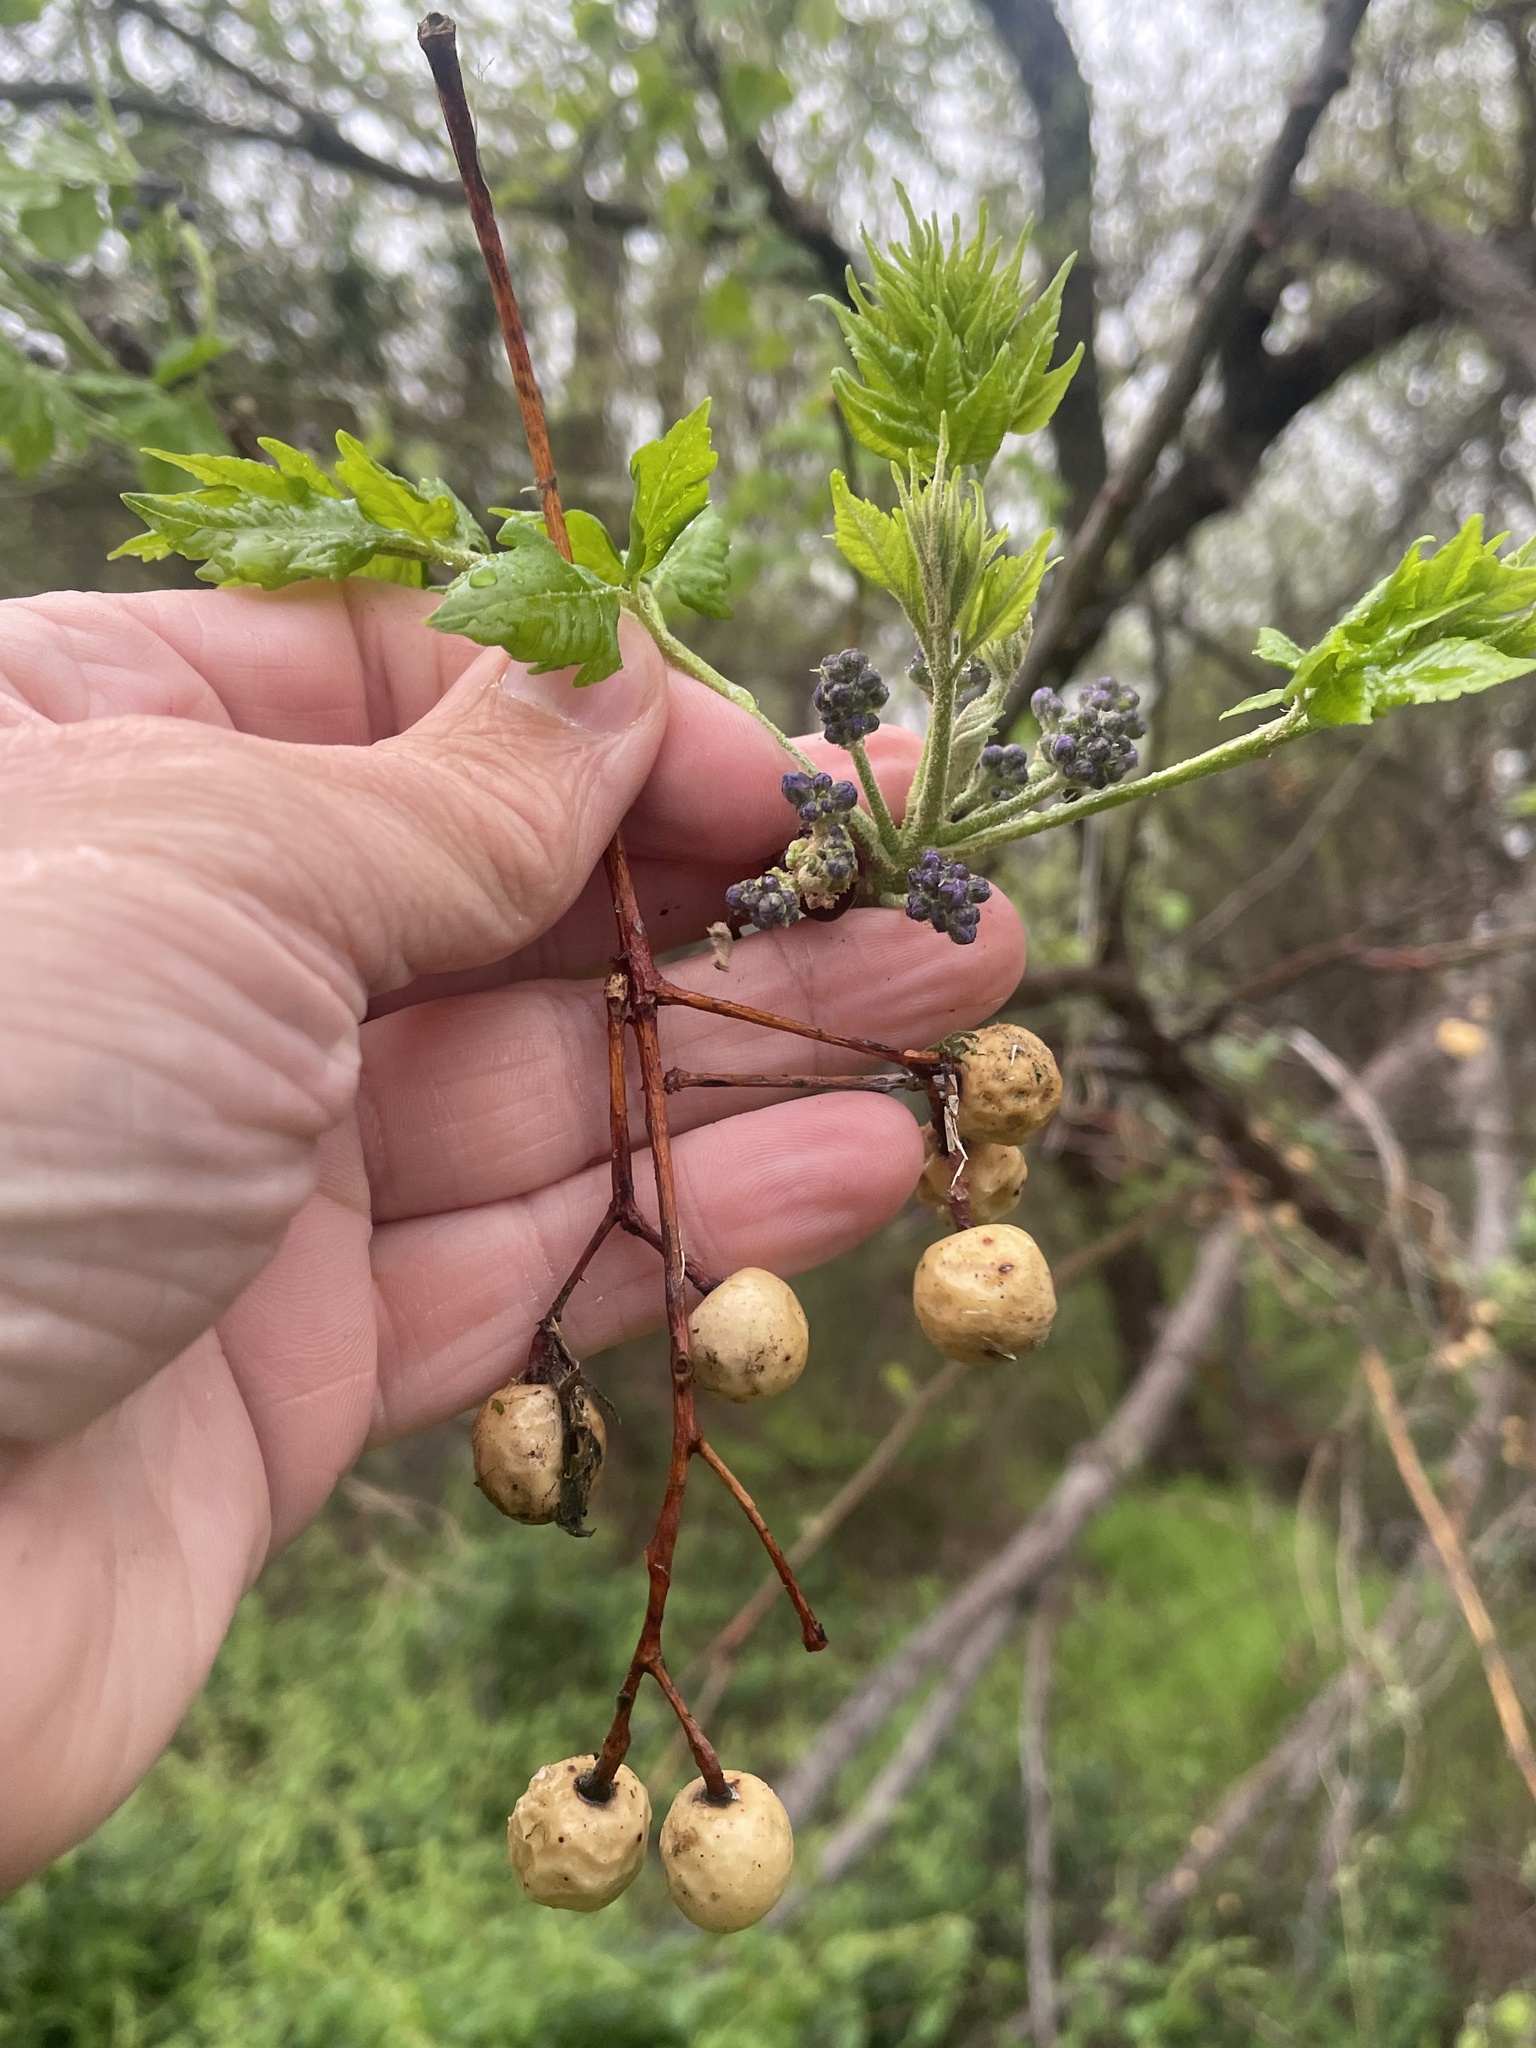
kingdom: Plantae
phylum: Tracheophyta
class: Magnoliopsida
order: Sapindales
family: Meliaceae
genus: Melia
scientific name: Melia azedarach
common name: Chinaberrytree
